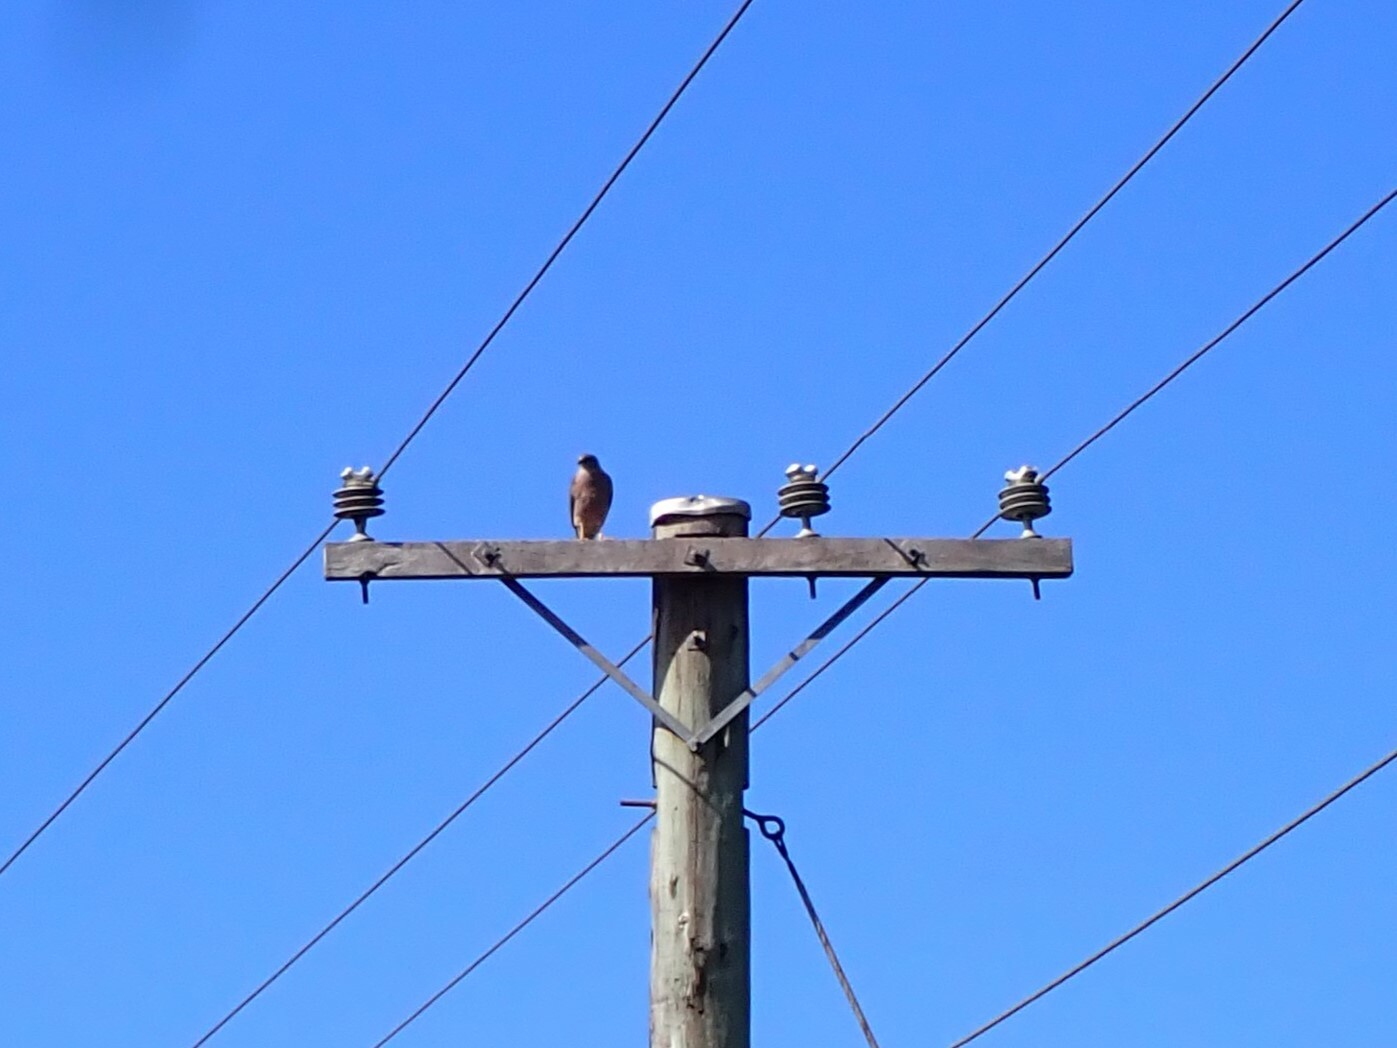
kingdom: Animalia
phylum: Chordata
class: Aves
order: Accipitriformes
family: Accipitridae
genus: Accipiter
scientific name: Accipiter rufitorques
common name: Fiji goshawk
